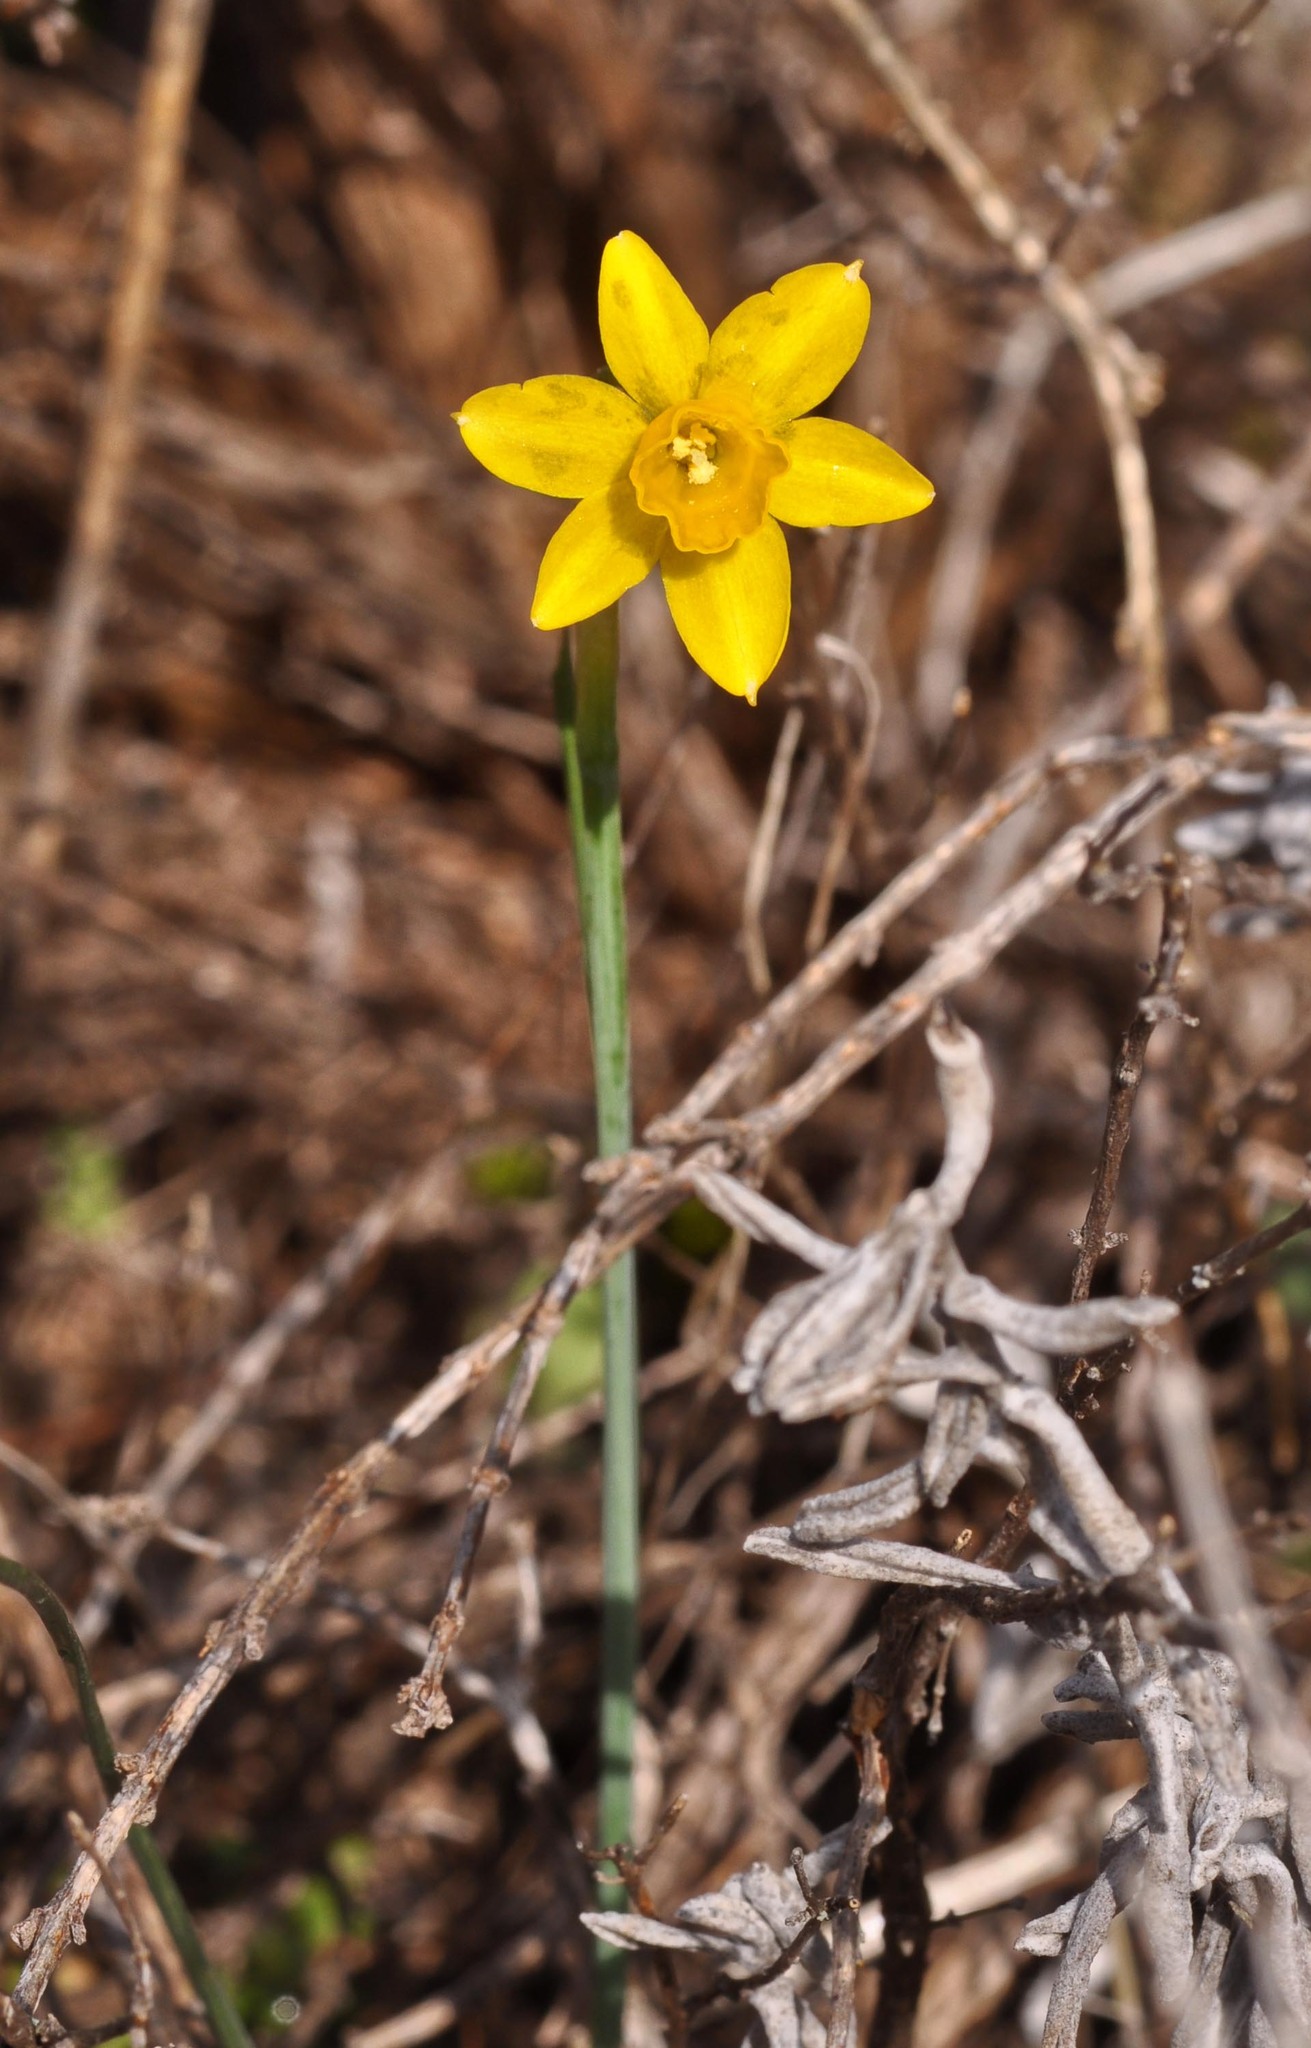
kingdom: Plantae
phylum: Tracheophyta
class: Liliopsida
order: Asparagales
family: Amaryllidaceae
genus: Narcissus
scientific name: Narcissus assoanus
